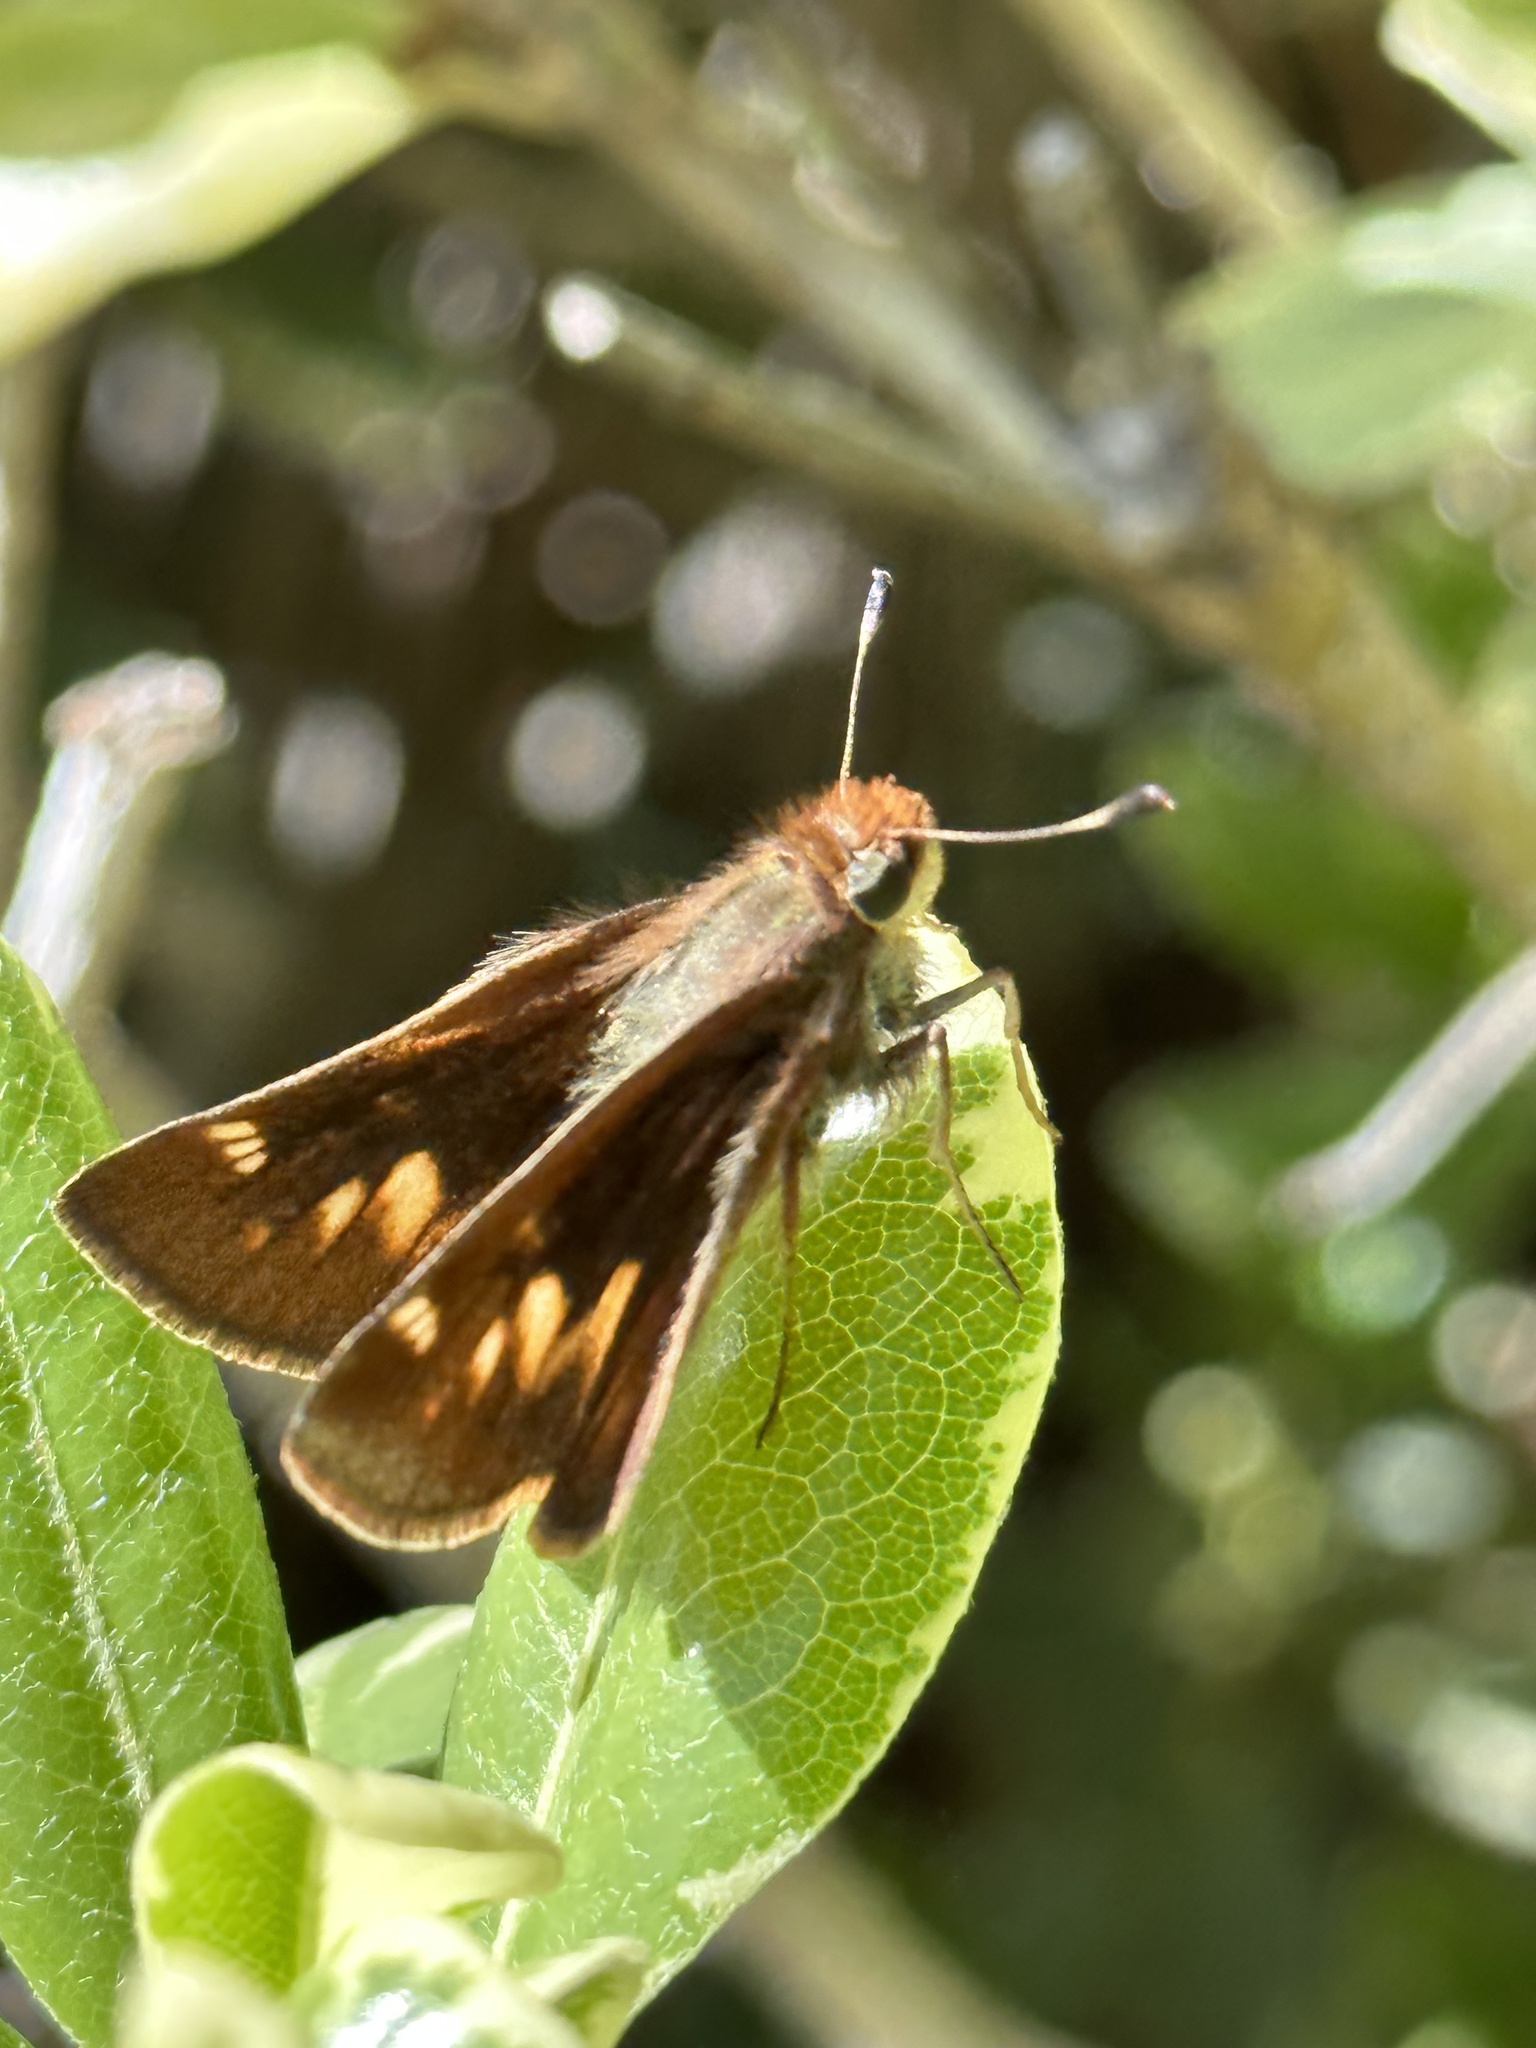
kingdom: Animalia
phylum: Arthropoda
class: Insecta
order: Lepidoptera
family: Hesperiidae
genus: Lon
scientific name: Lon melane
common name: Umber skipper
